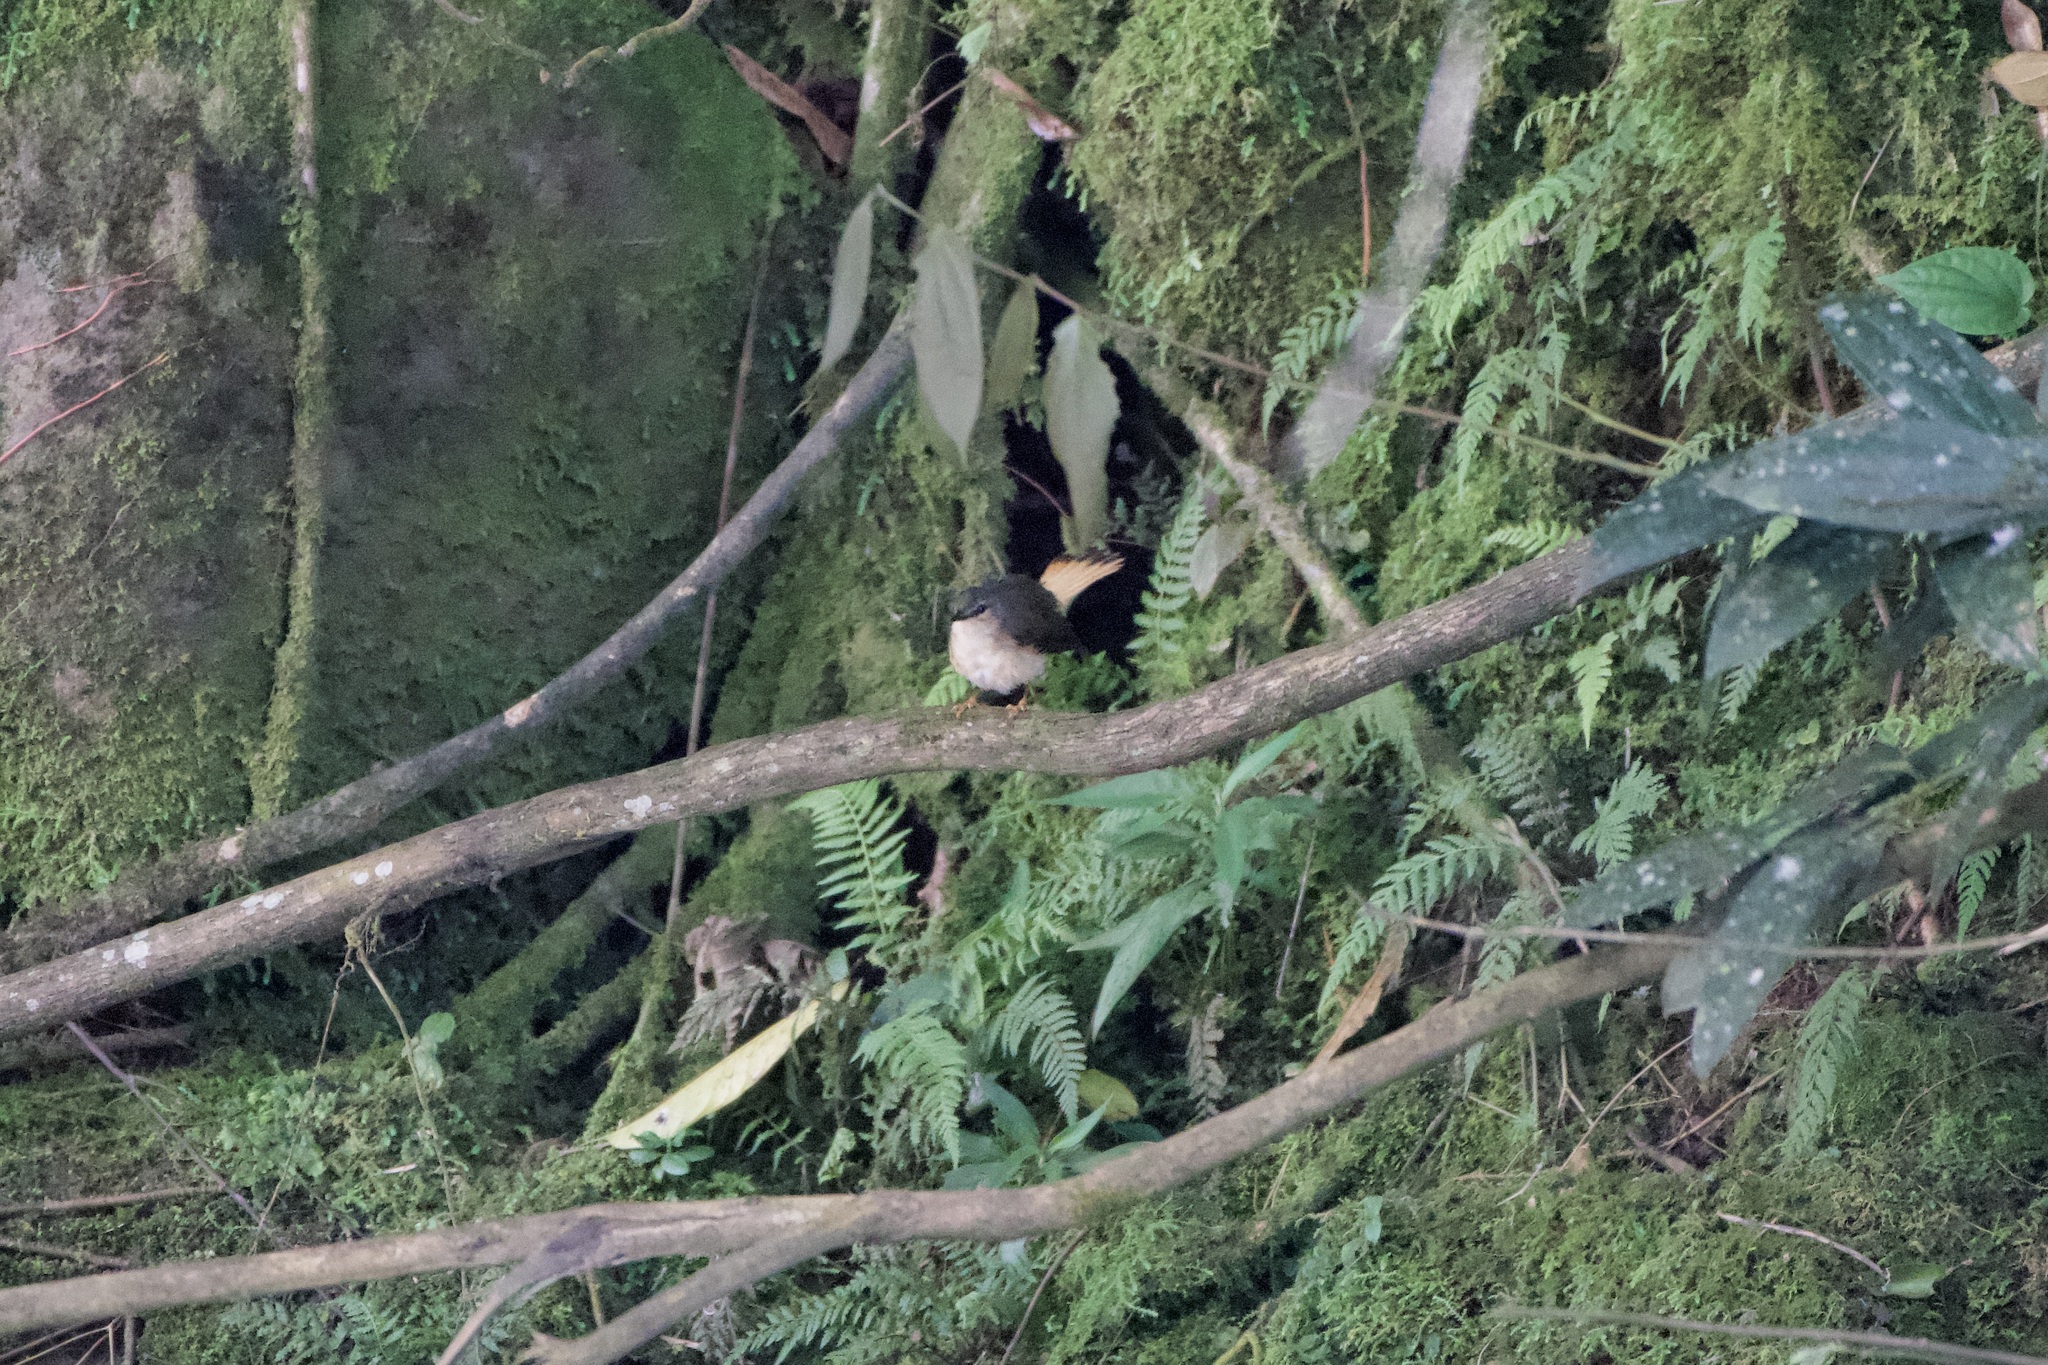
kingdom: Animalia
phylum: Chordata
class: Aves
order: Passeriformes
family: Parulidae
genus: Myiothlypis
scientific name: Myiothlypis fulvicauda
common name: Buff-rumped warbler
